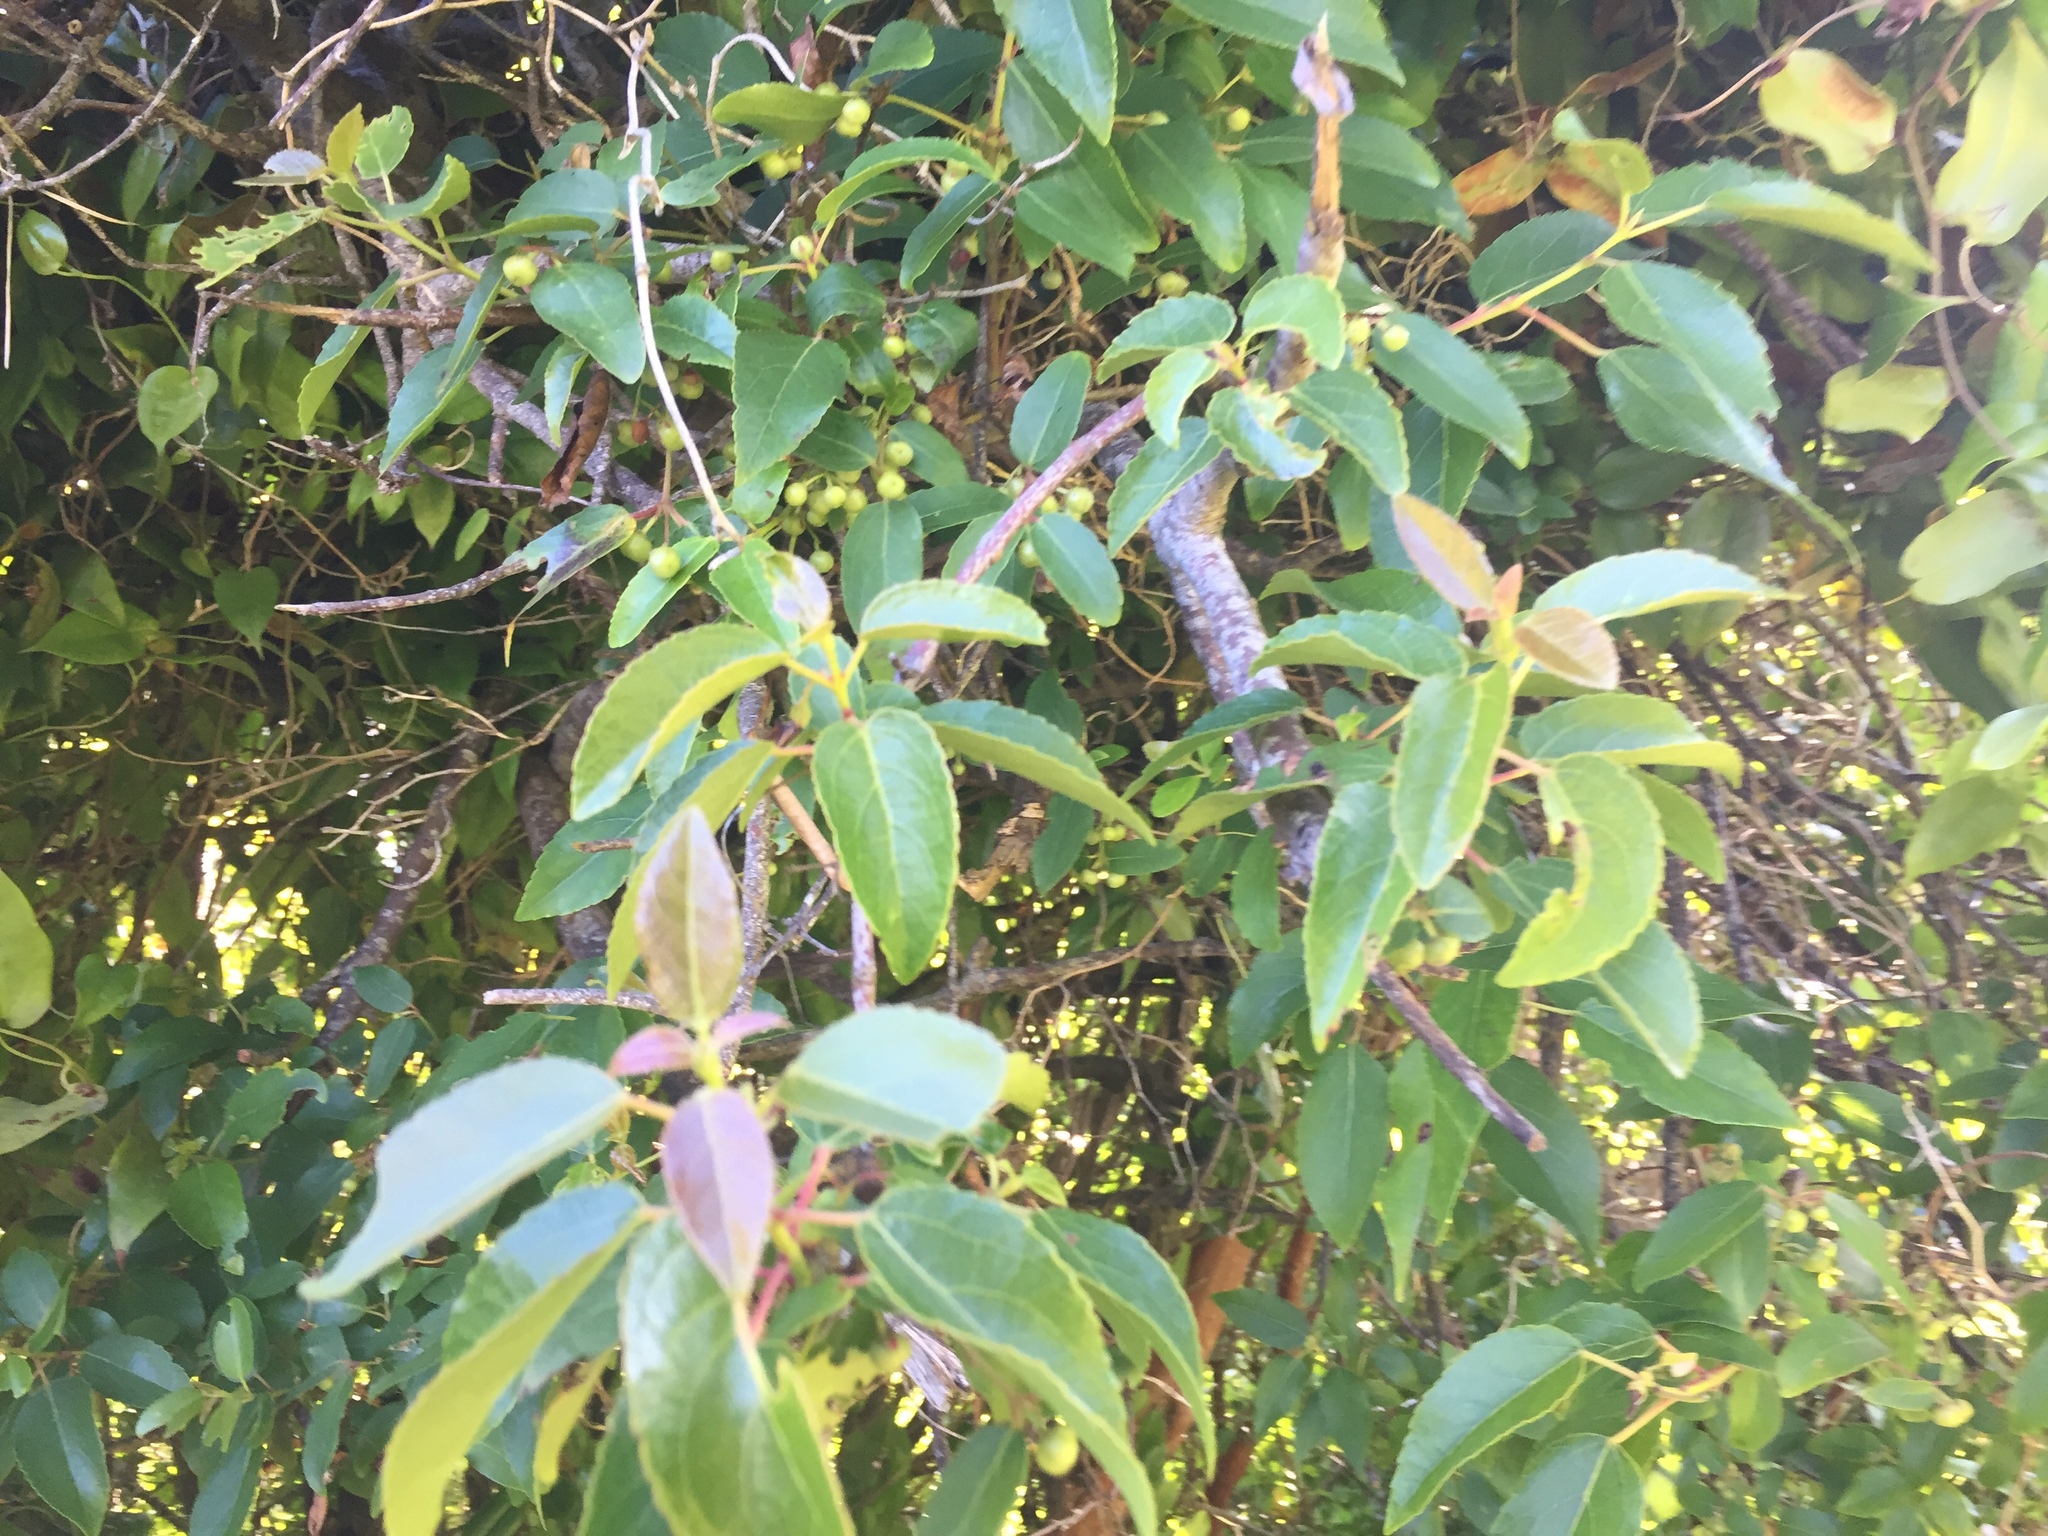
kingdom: Plantae
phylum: Tracheophyta
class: Magnoliopsida
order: Oxalidales
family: Elaeocarpaceae
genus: Aristotelia
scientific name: Aristotelia chilensis
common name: Maquei
